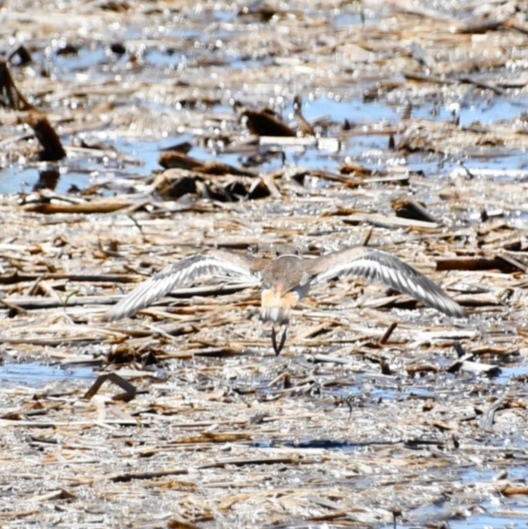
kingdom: Animalia
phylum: Chordata
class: Aves
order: Charadriiformes
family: Charadriidae
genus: Charadrius
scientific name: Charadrius vociferus
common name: Killdeer
